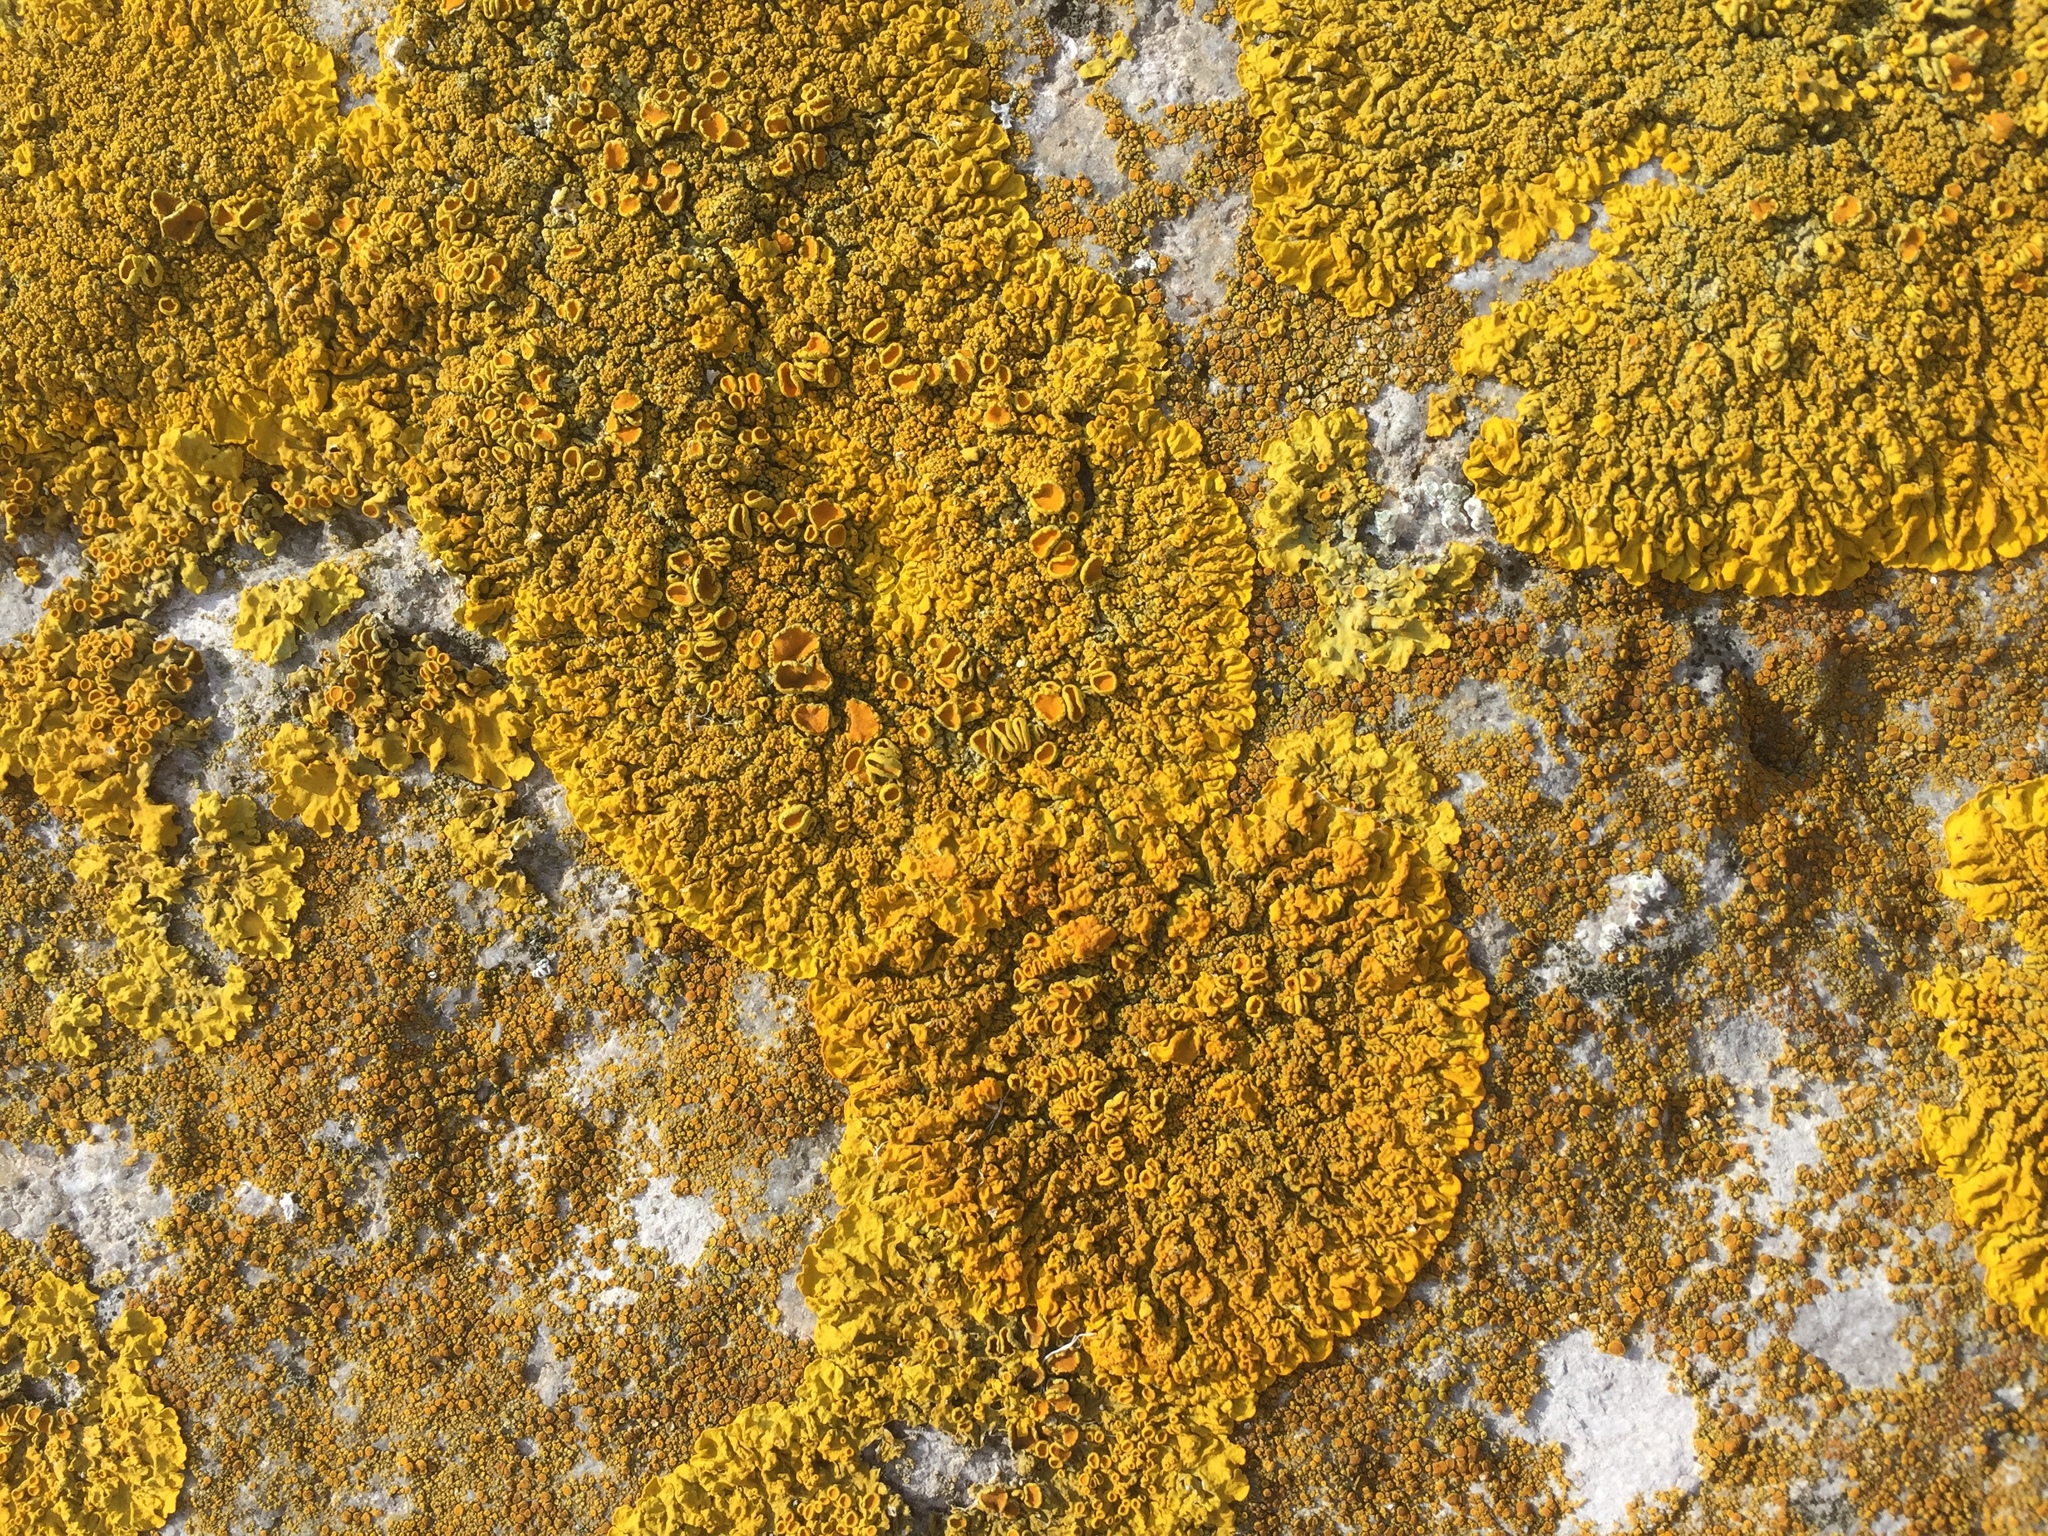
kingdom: Fungi
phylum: Ascomycota
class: Lecanoromycetes
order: Teloschistales
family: Teloschistaceae
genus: Xanthoria
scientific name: Xanthoria calcicola
